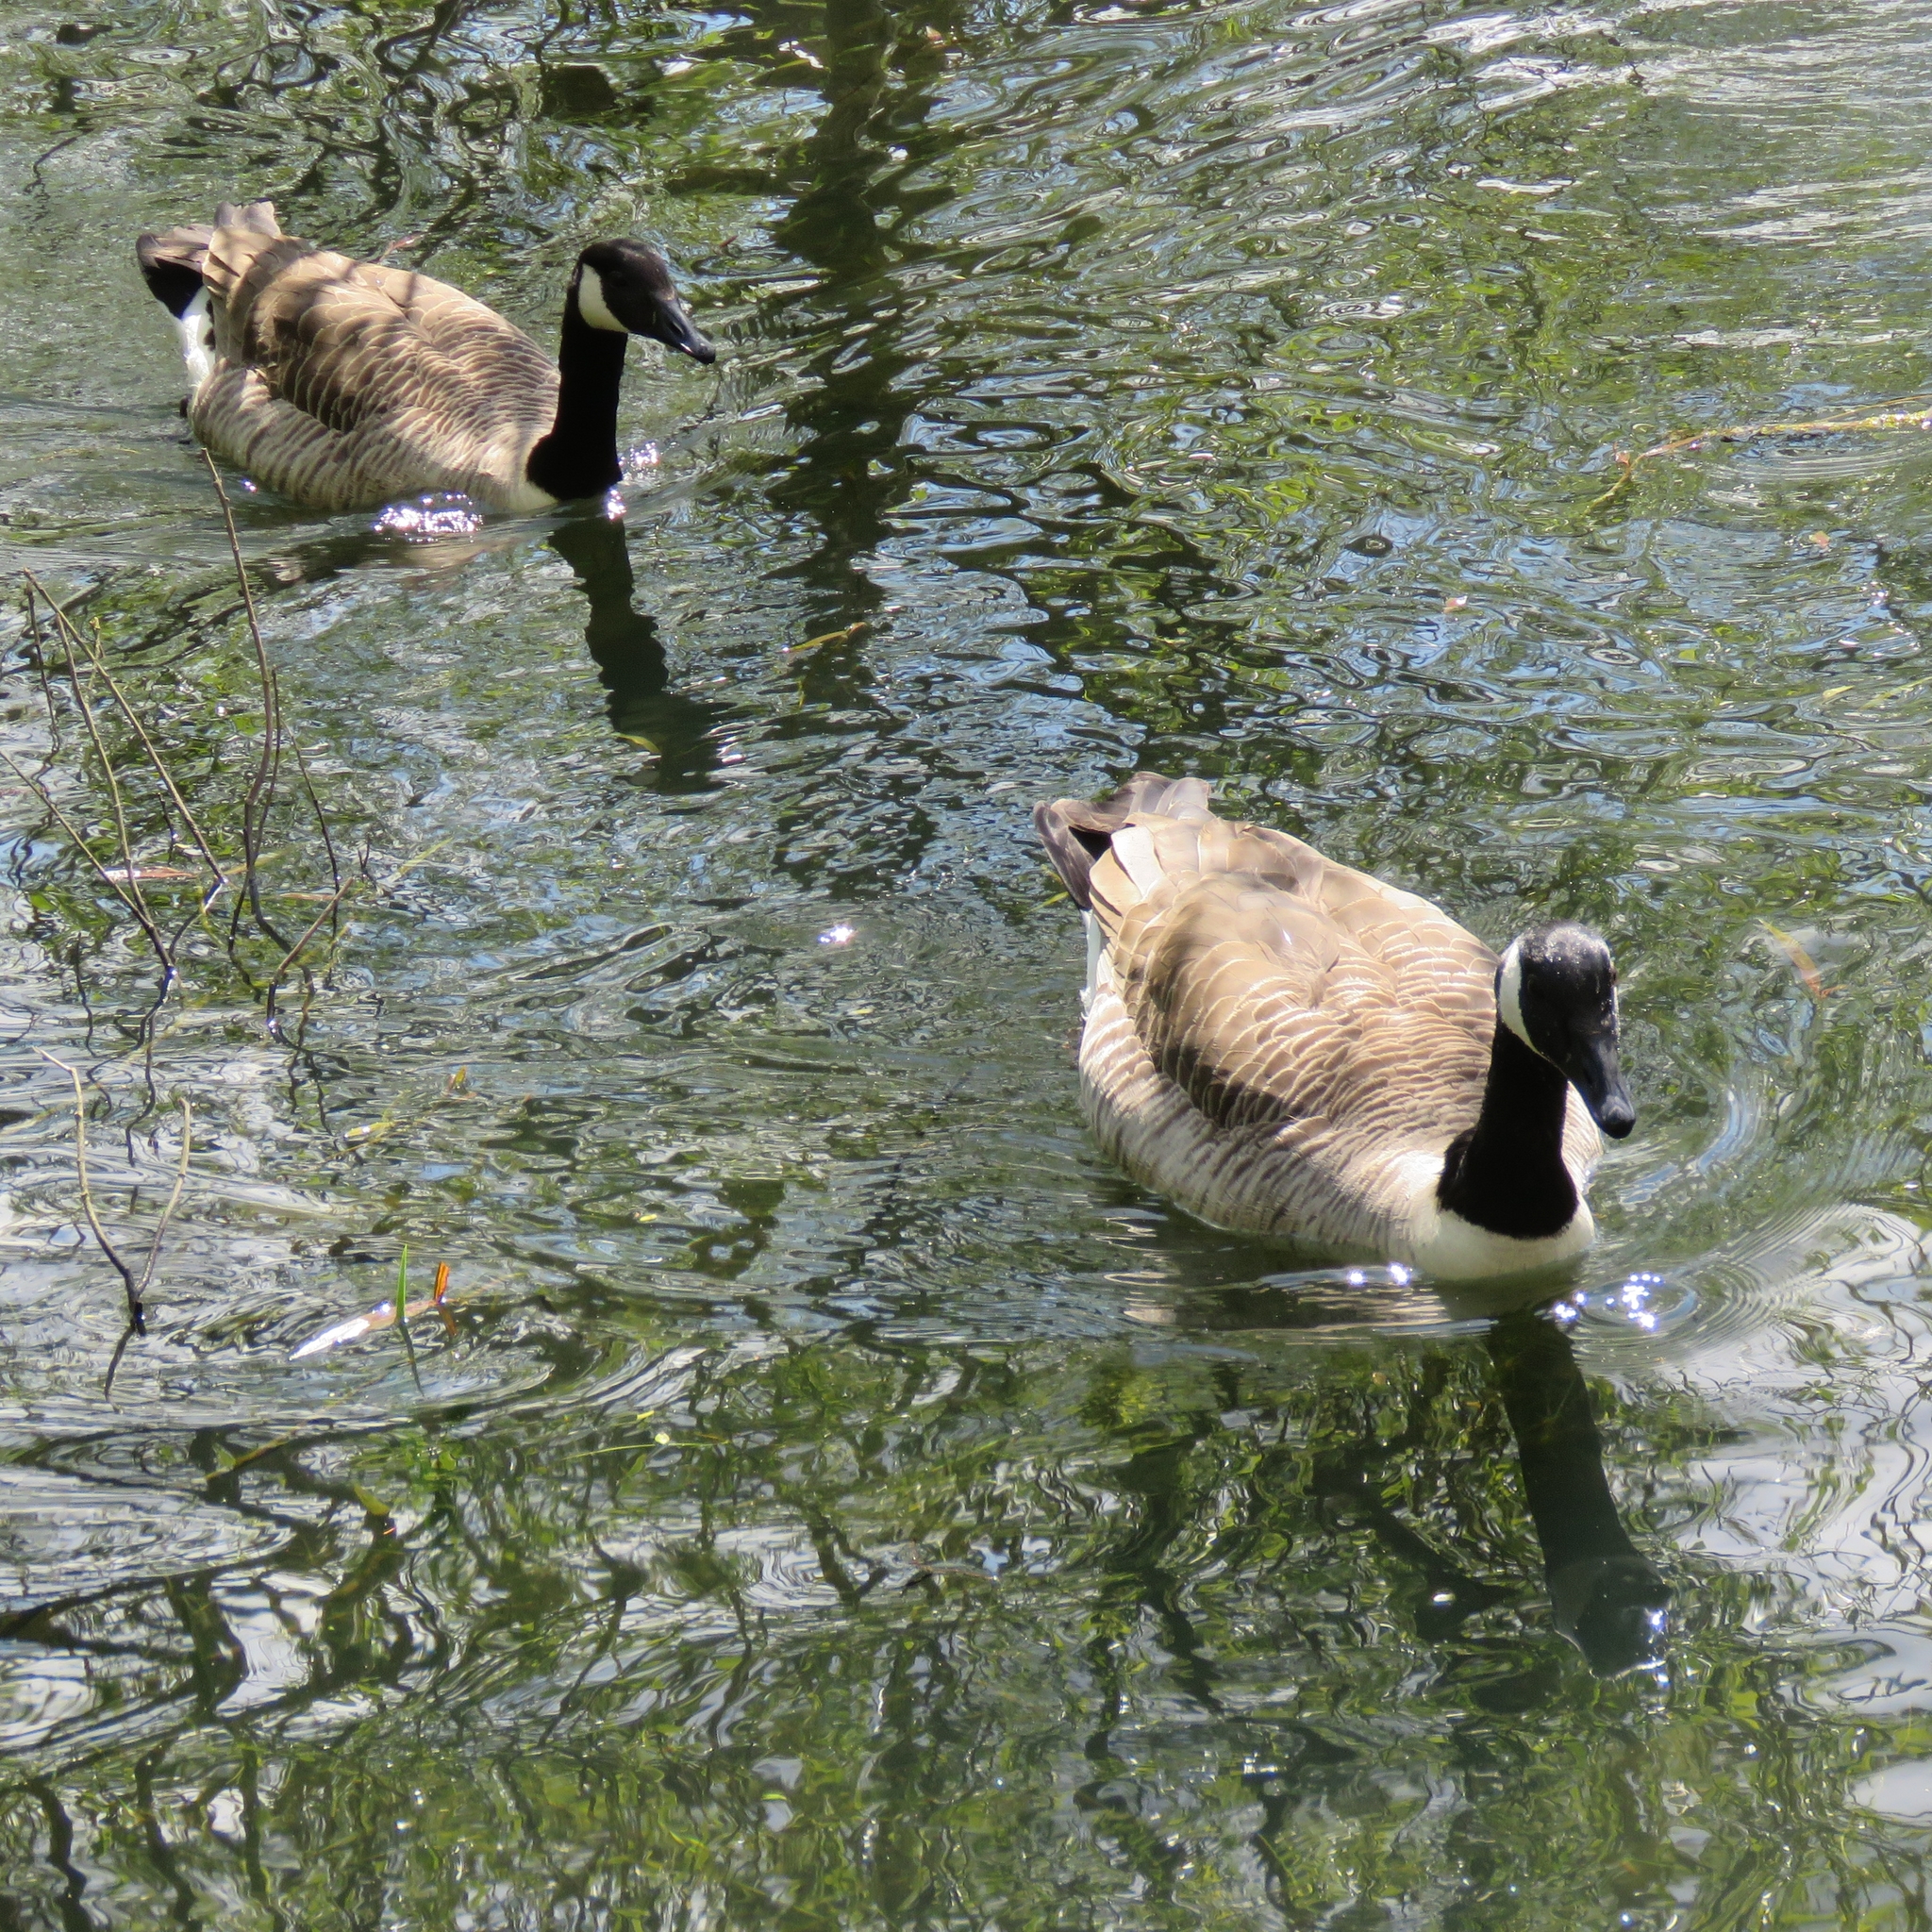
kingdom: Animalia
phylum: Chordata
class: Aves
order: Anseriformes
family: Anatidae
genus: Branta
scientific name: Branta canadensis
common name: Canada goose
